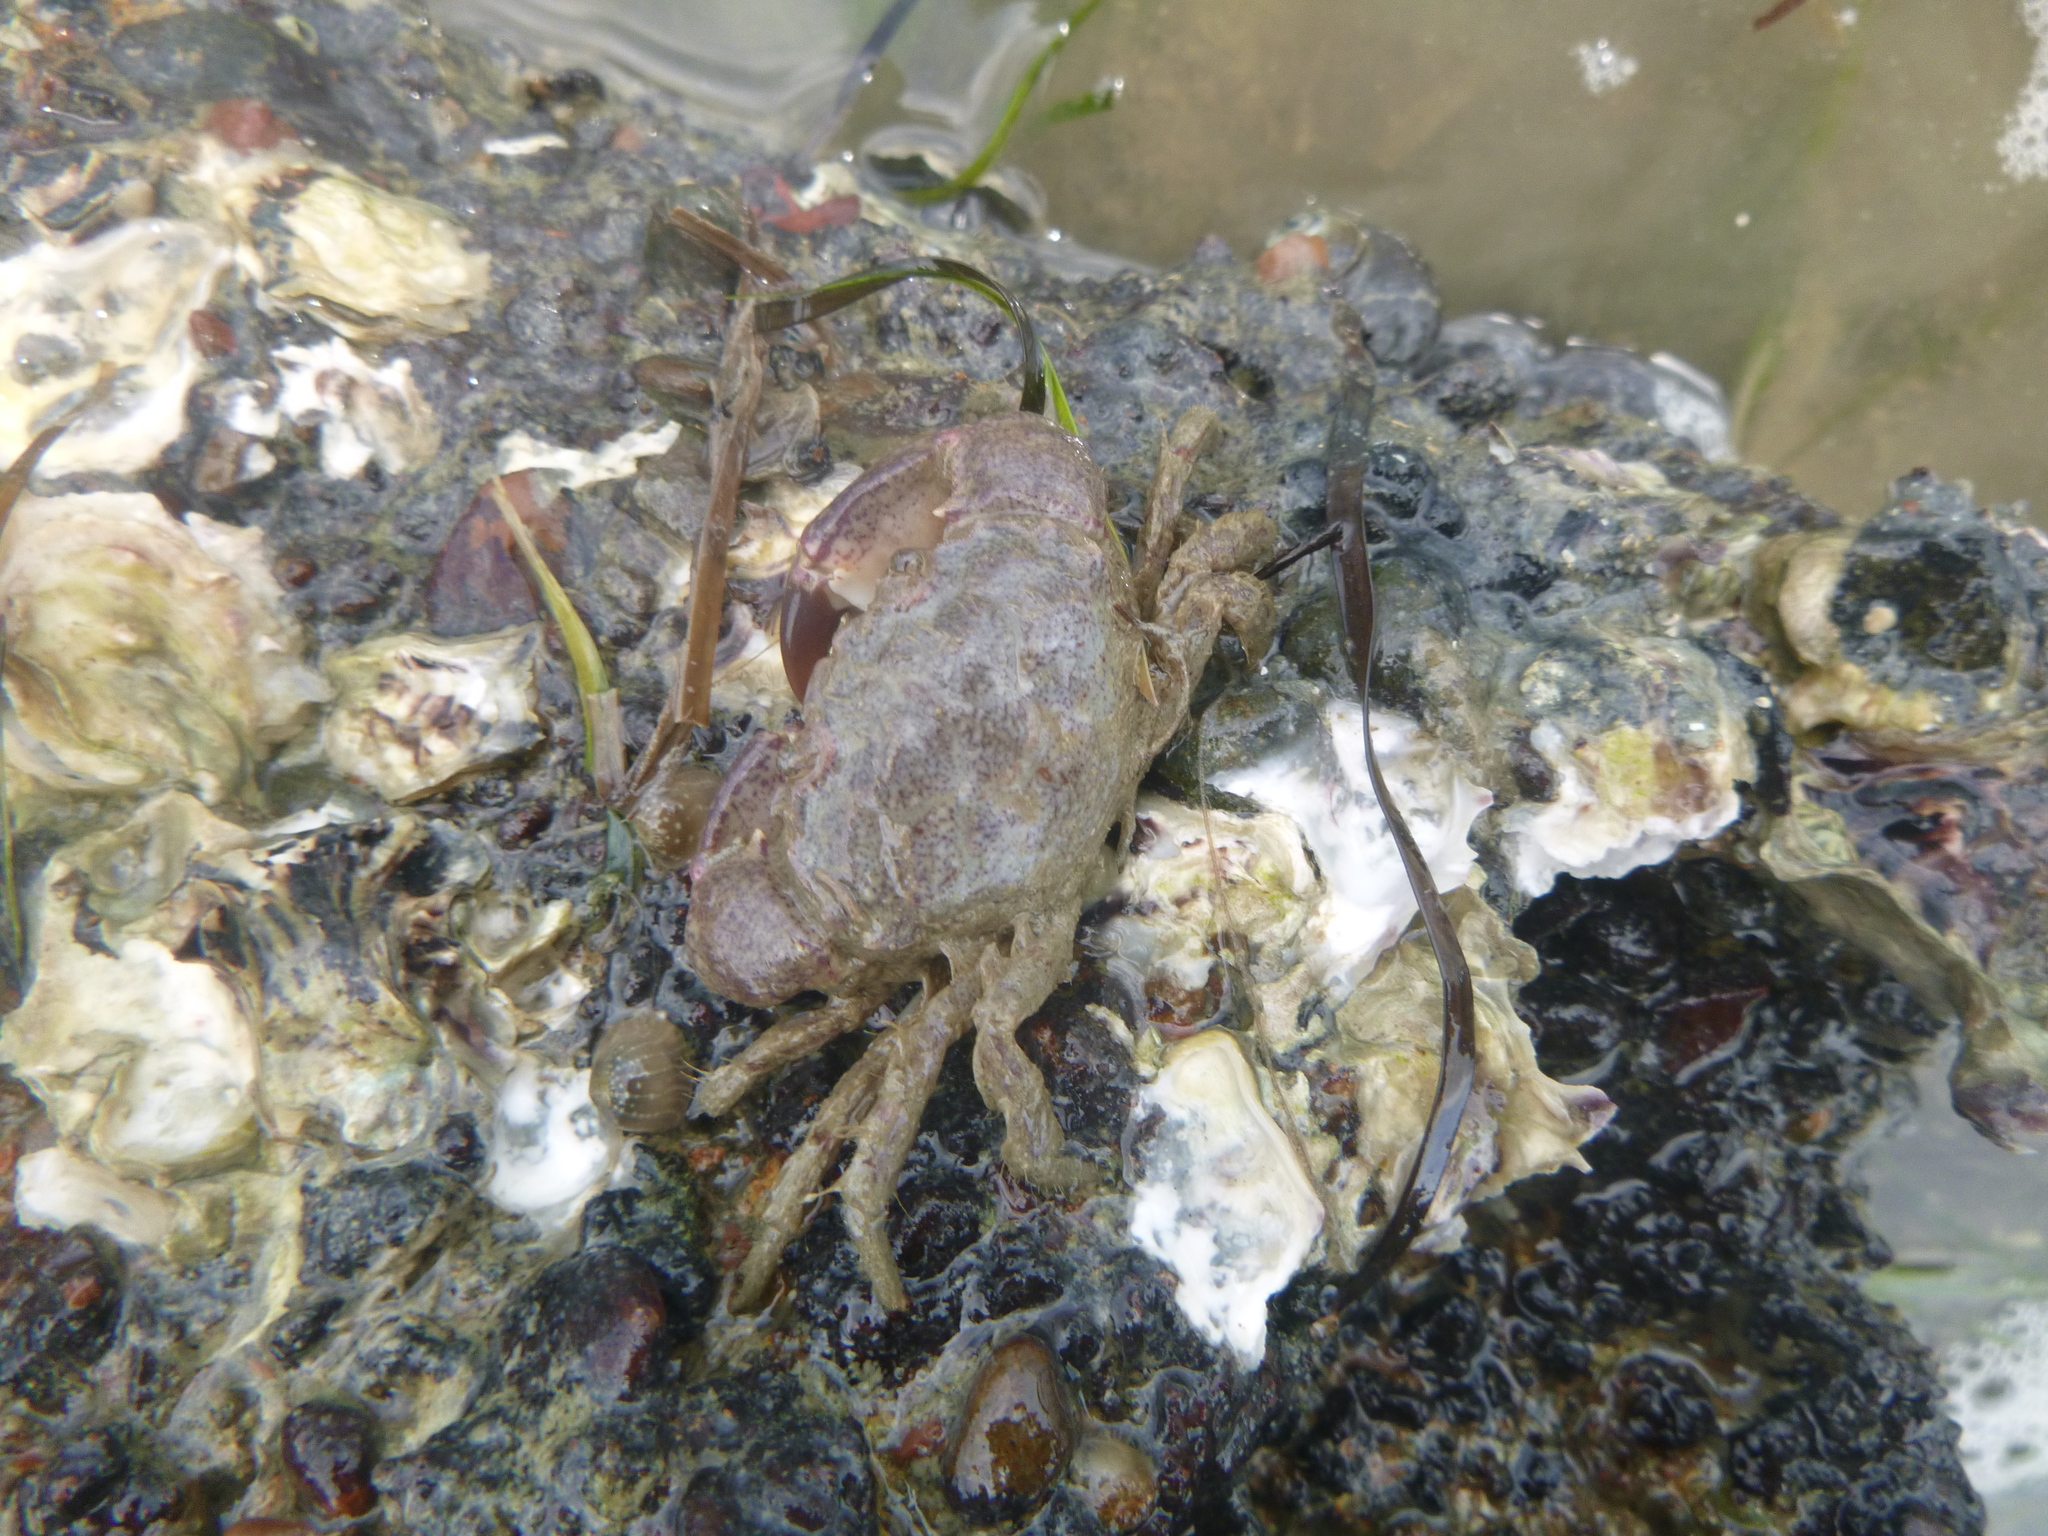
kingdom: Animalia
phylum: Arthropoda
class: Malacostraca
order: Decapoda
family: Pilumnidae
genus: Pilumnopeus
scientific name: Pilumnopeus serratifrons
